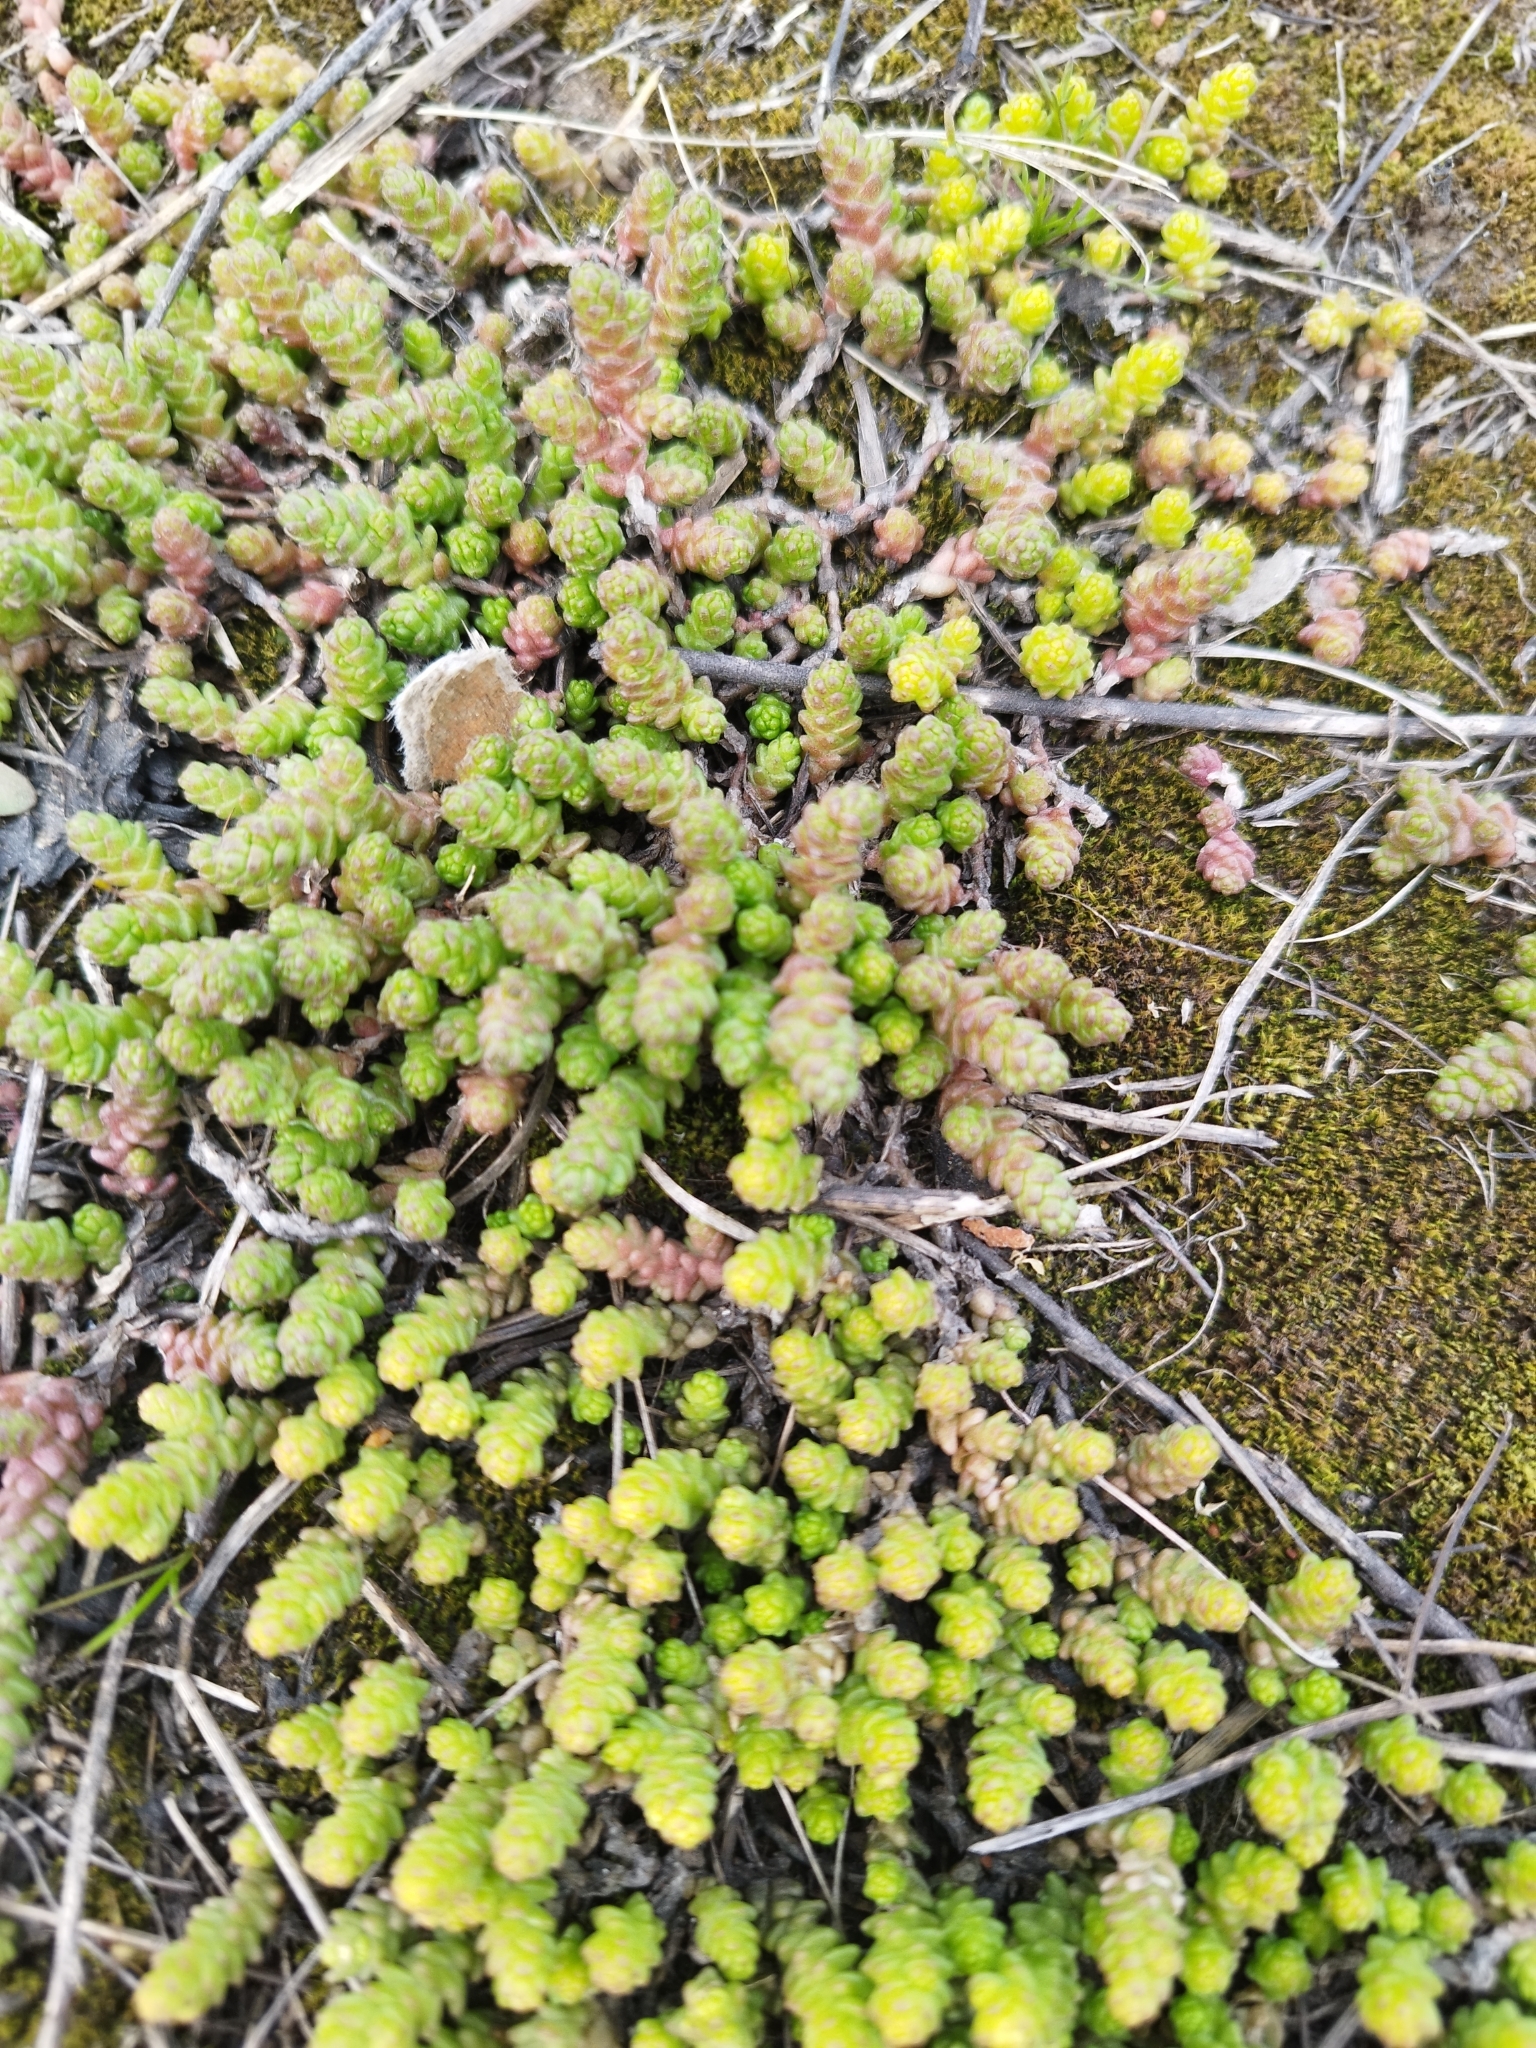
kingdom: Plantae
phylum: Tracheophyta
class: Magnoliopsida
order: Saxifragales
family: Crassulaceae
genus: Sedum
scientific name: Sedum acre
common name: Biting stonecrop
